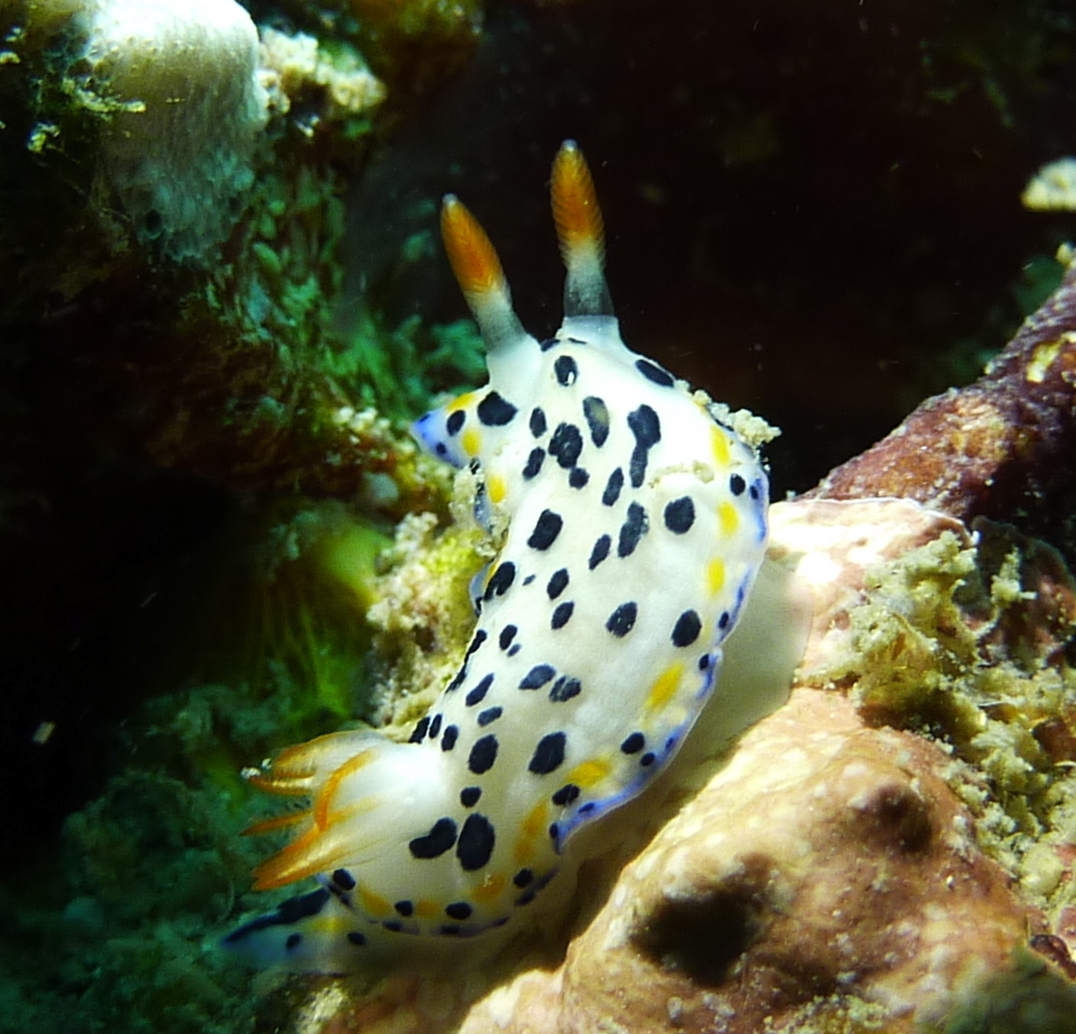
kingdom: Animalia
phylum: Mollusca
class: Gastropoda
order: Nudibranchia
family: Chromodorididae
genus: Hypselodoris
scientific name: Hypselodoris maritima
